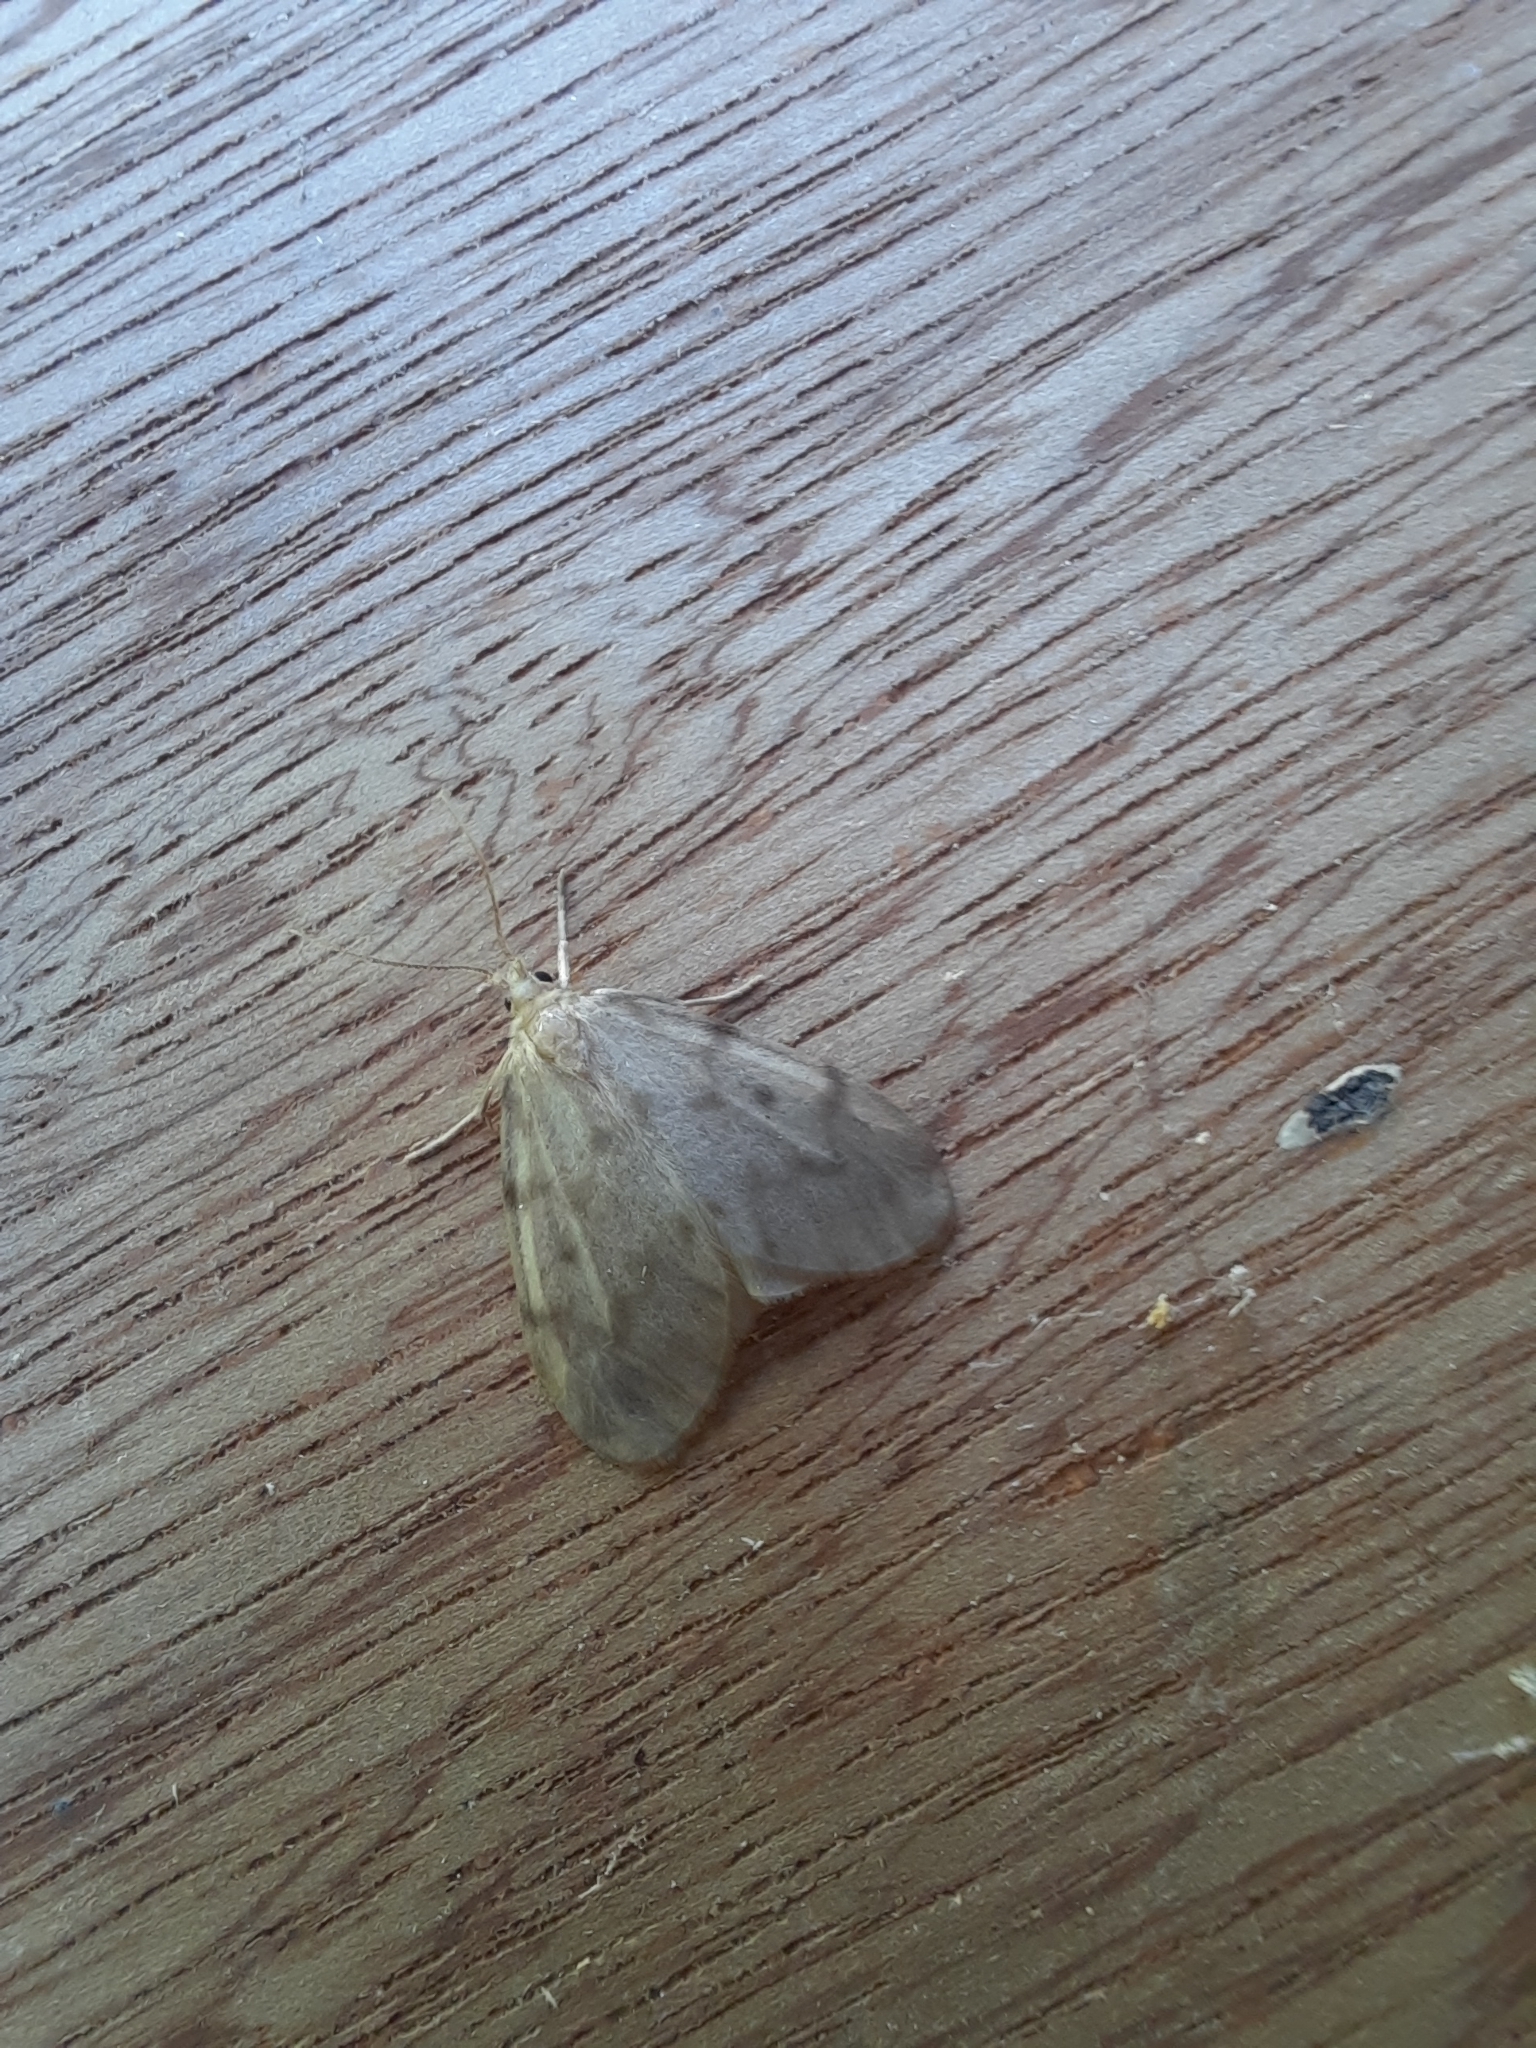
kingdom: Animalia
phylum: Arthropoda
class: Insecta
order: Lepidoptera
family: Erebidae
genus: Nudaria
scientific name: Nudaria mundana
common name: Muslin footman
